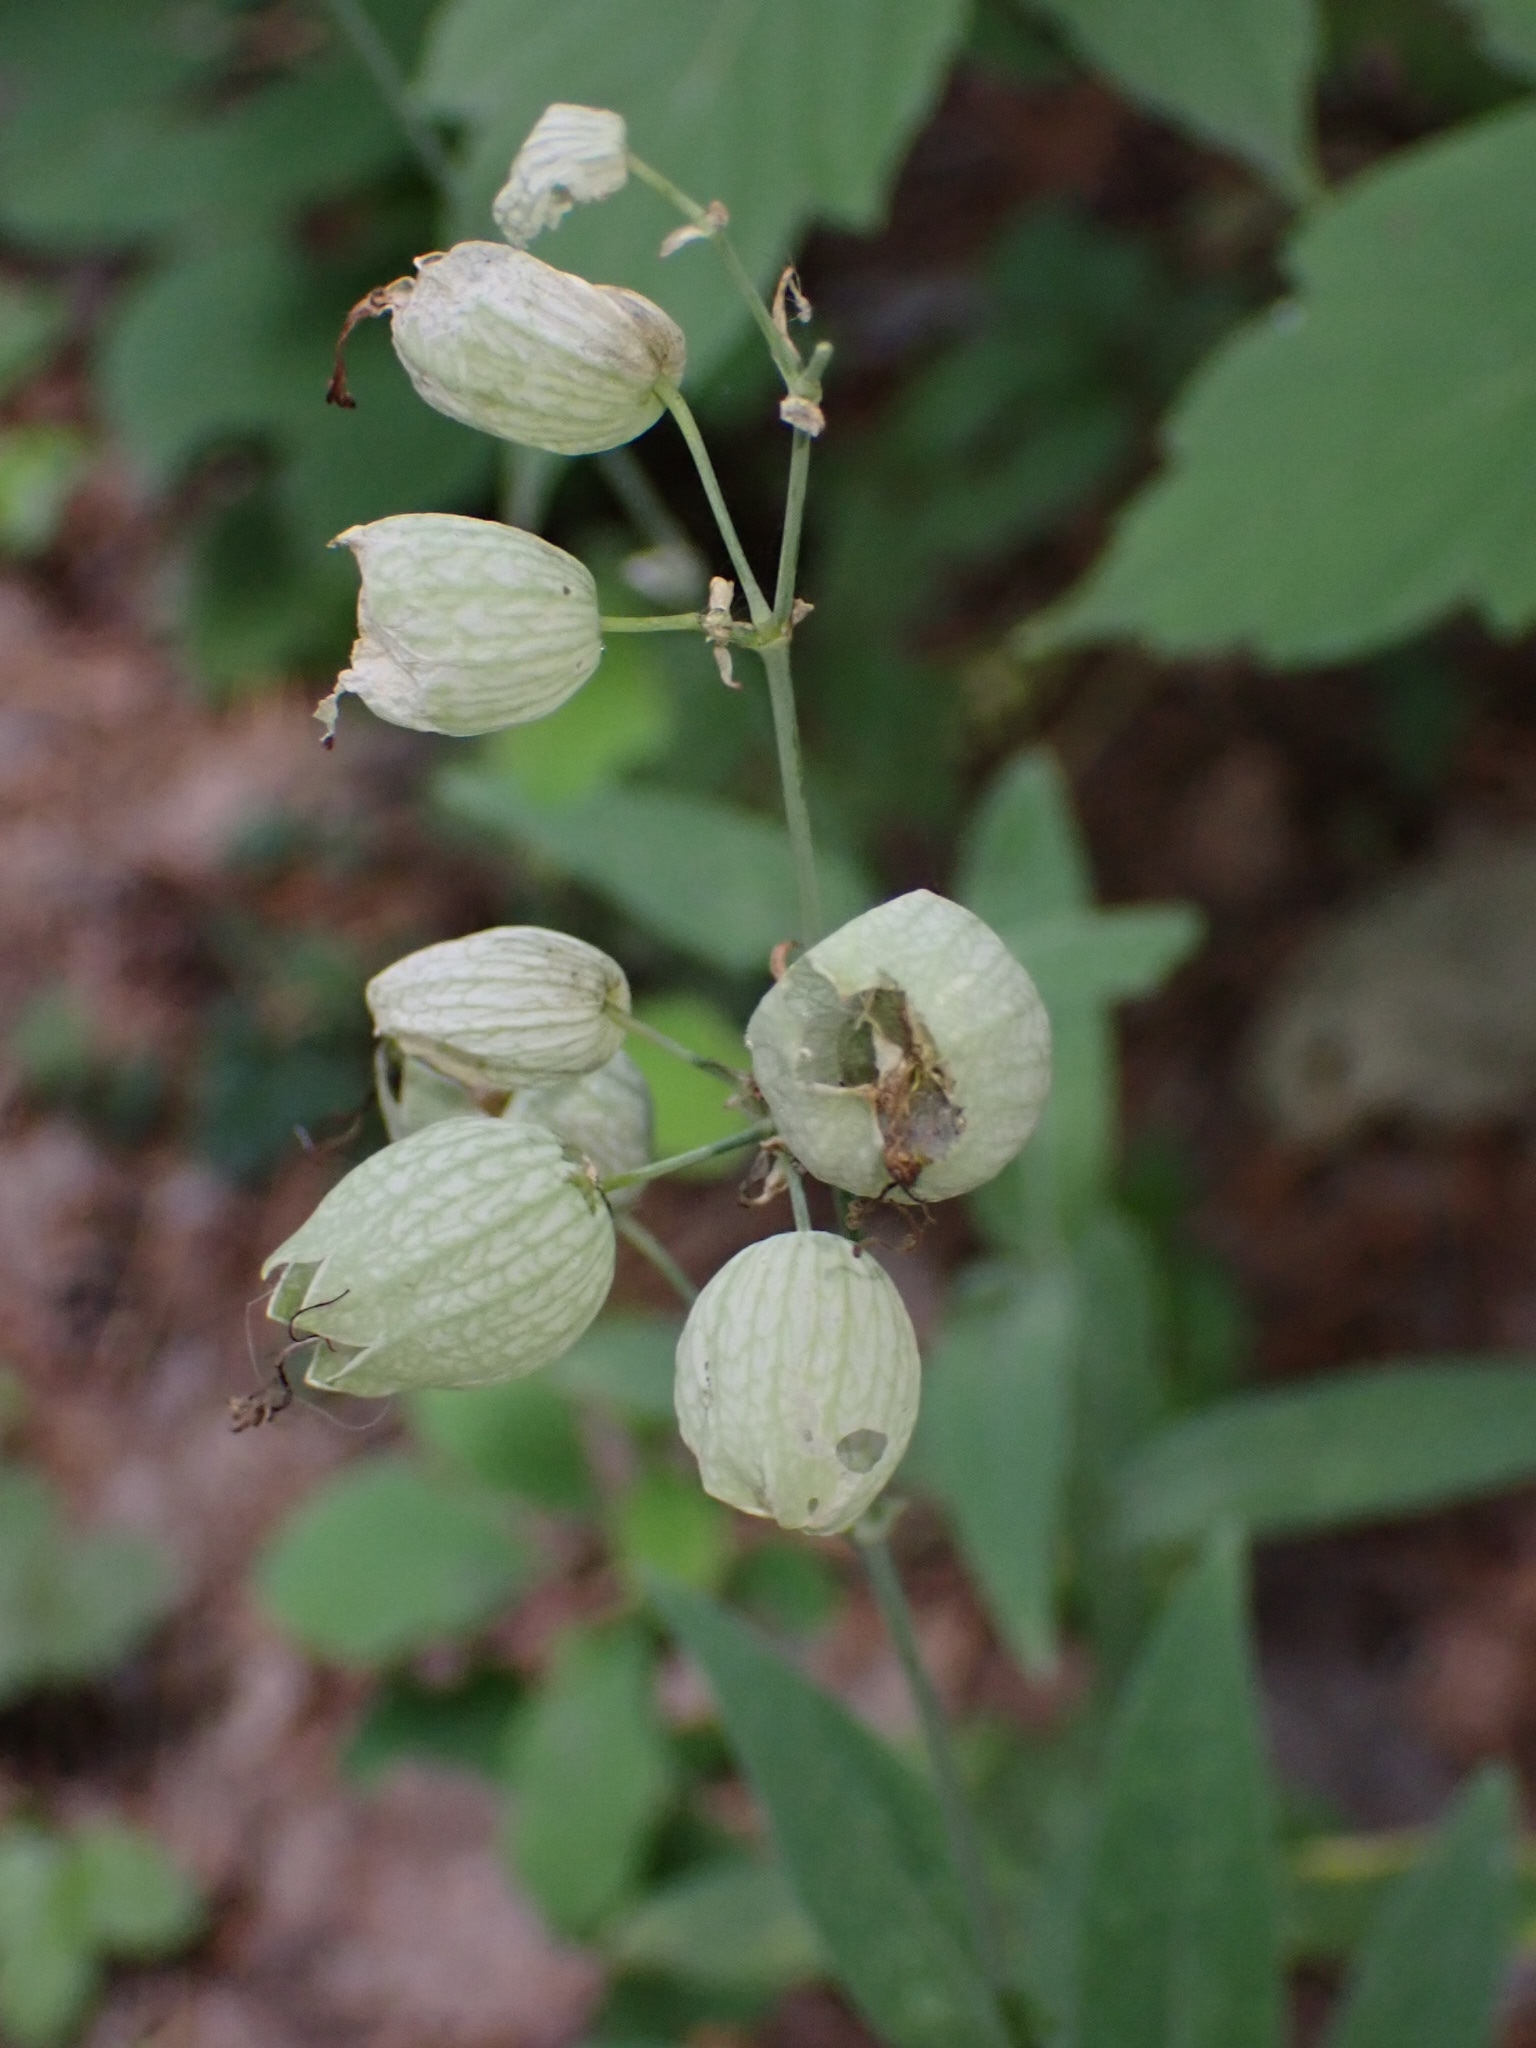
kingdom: Plantae
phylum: Tracheophyta
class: Magnoliopsida
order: Caryophyllales
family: Caryophyllaceae
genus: Silene
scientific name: Silene vulgaris
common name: Bladder campion
